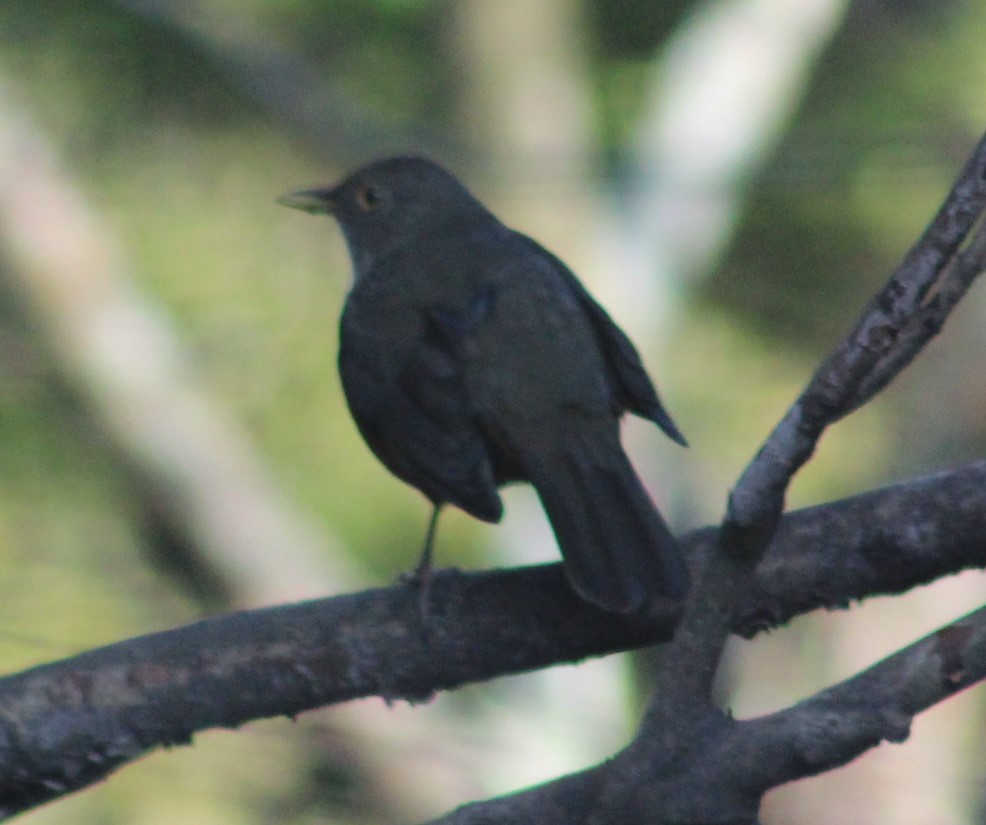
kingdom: Animalia
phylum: Chordata
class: Aves
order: Passeriformes
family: Turdidae
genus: Turdus
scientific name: Turdus rufiventris
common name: Rufous-bellied thrush
